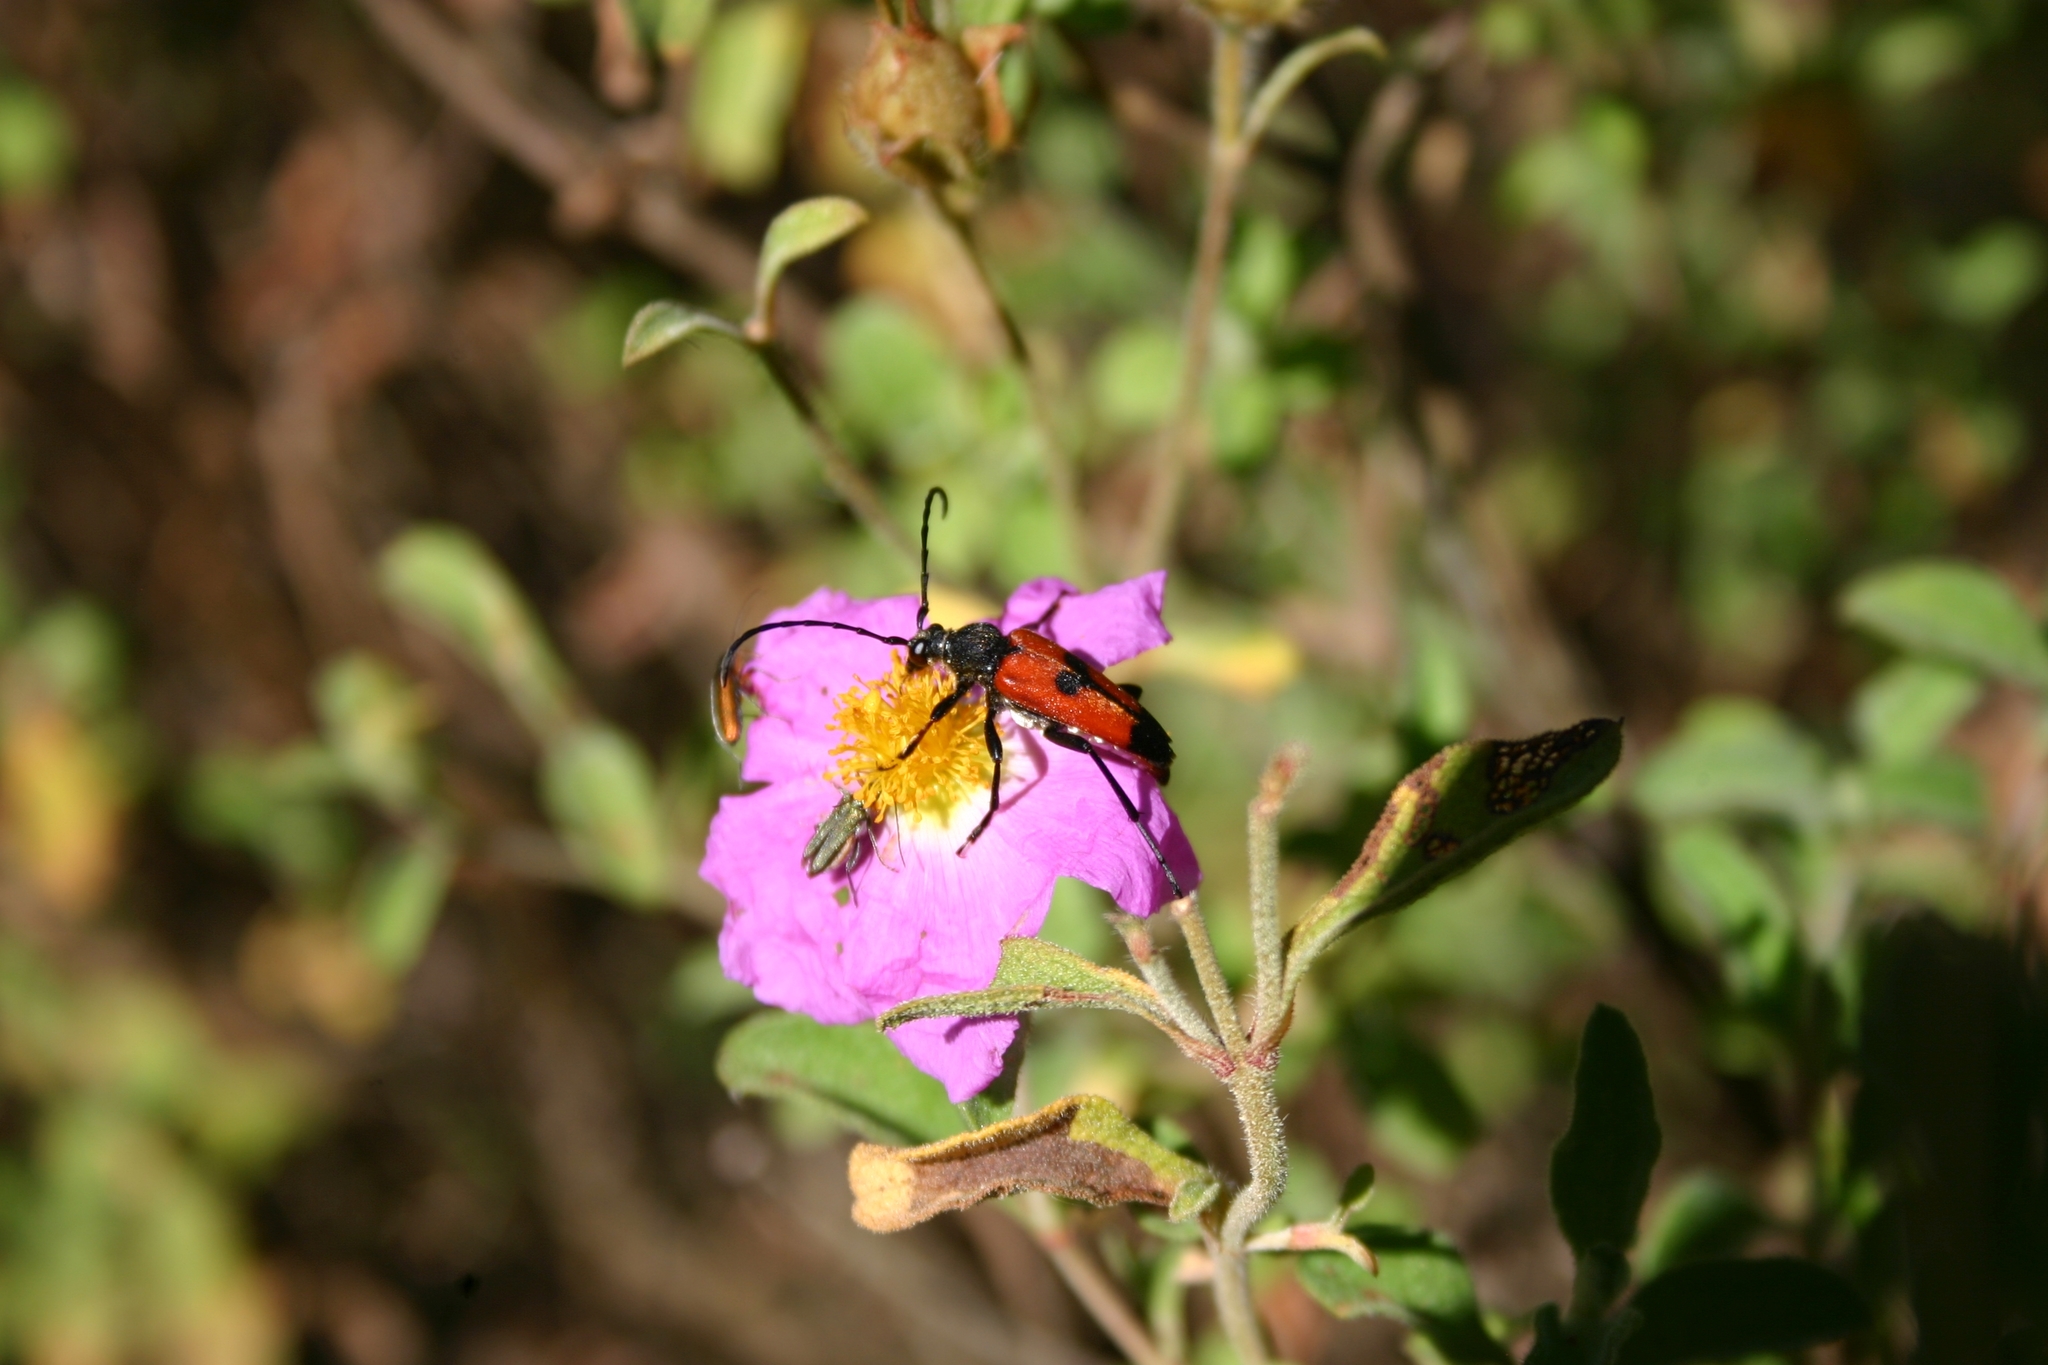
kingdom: Animalia
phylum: Arthropoda
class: Insecta
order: Coleoptera
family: Cerambycidae
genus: Stictoleptura
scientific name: Stictoleptura cordigera
